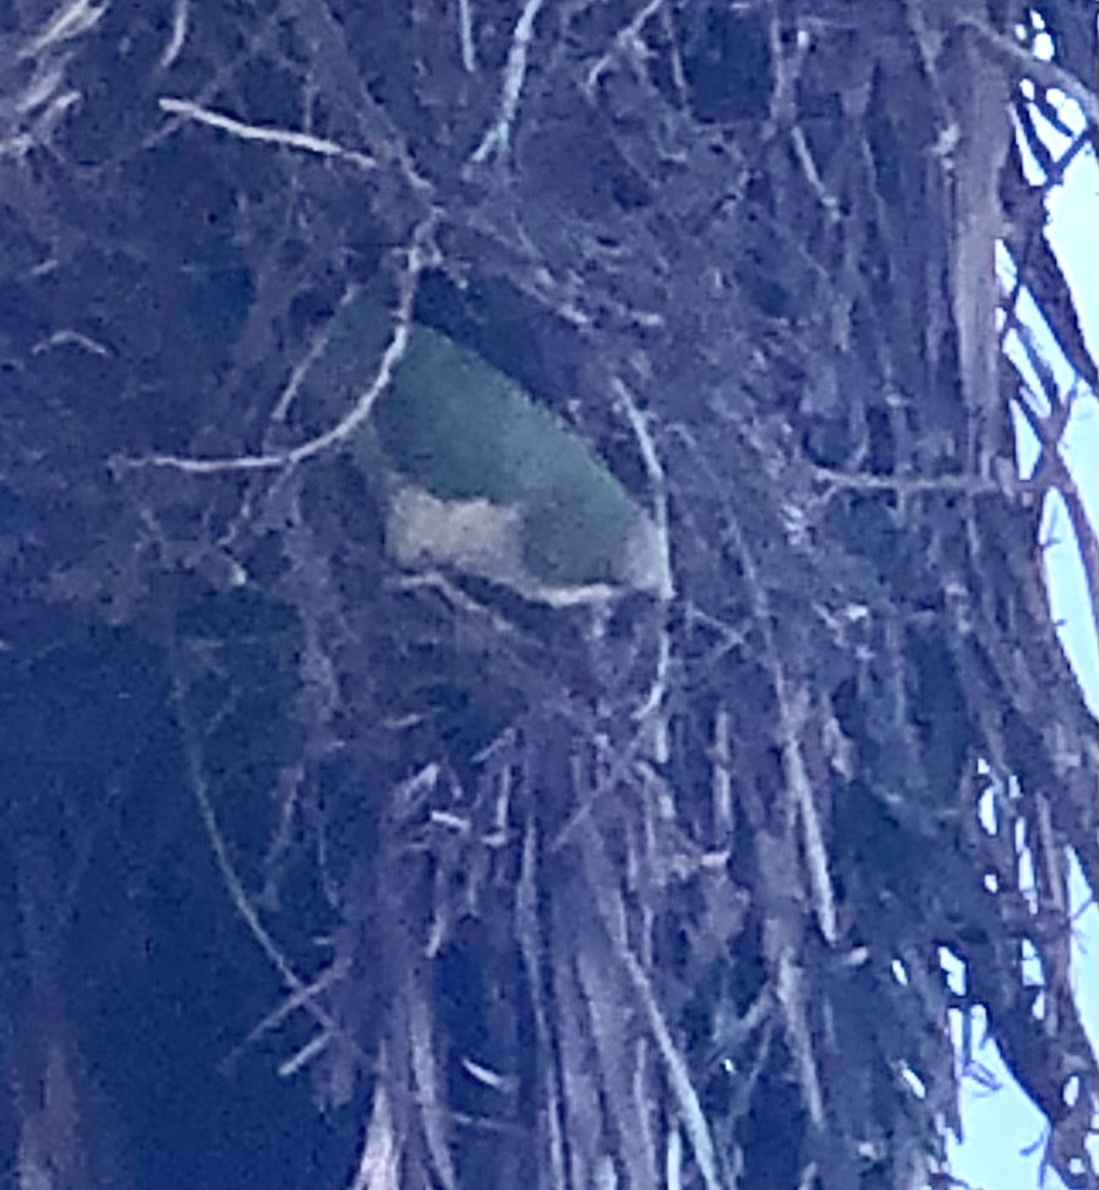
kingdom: Animalia
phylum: Chordata
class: Aves
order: Psittaciformes
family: Psittacidae
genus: Myiopsitta
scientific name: Myiopsitta monachus
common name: Monk parakeet
